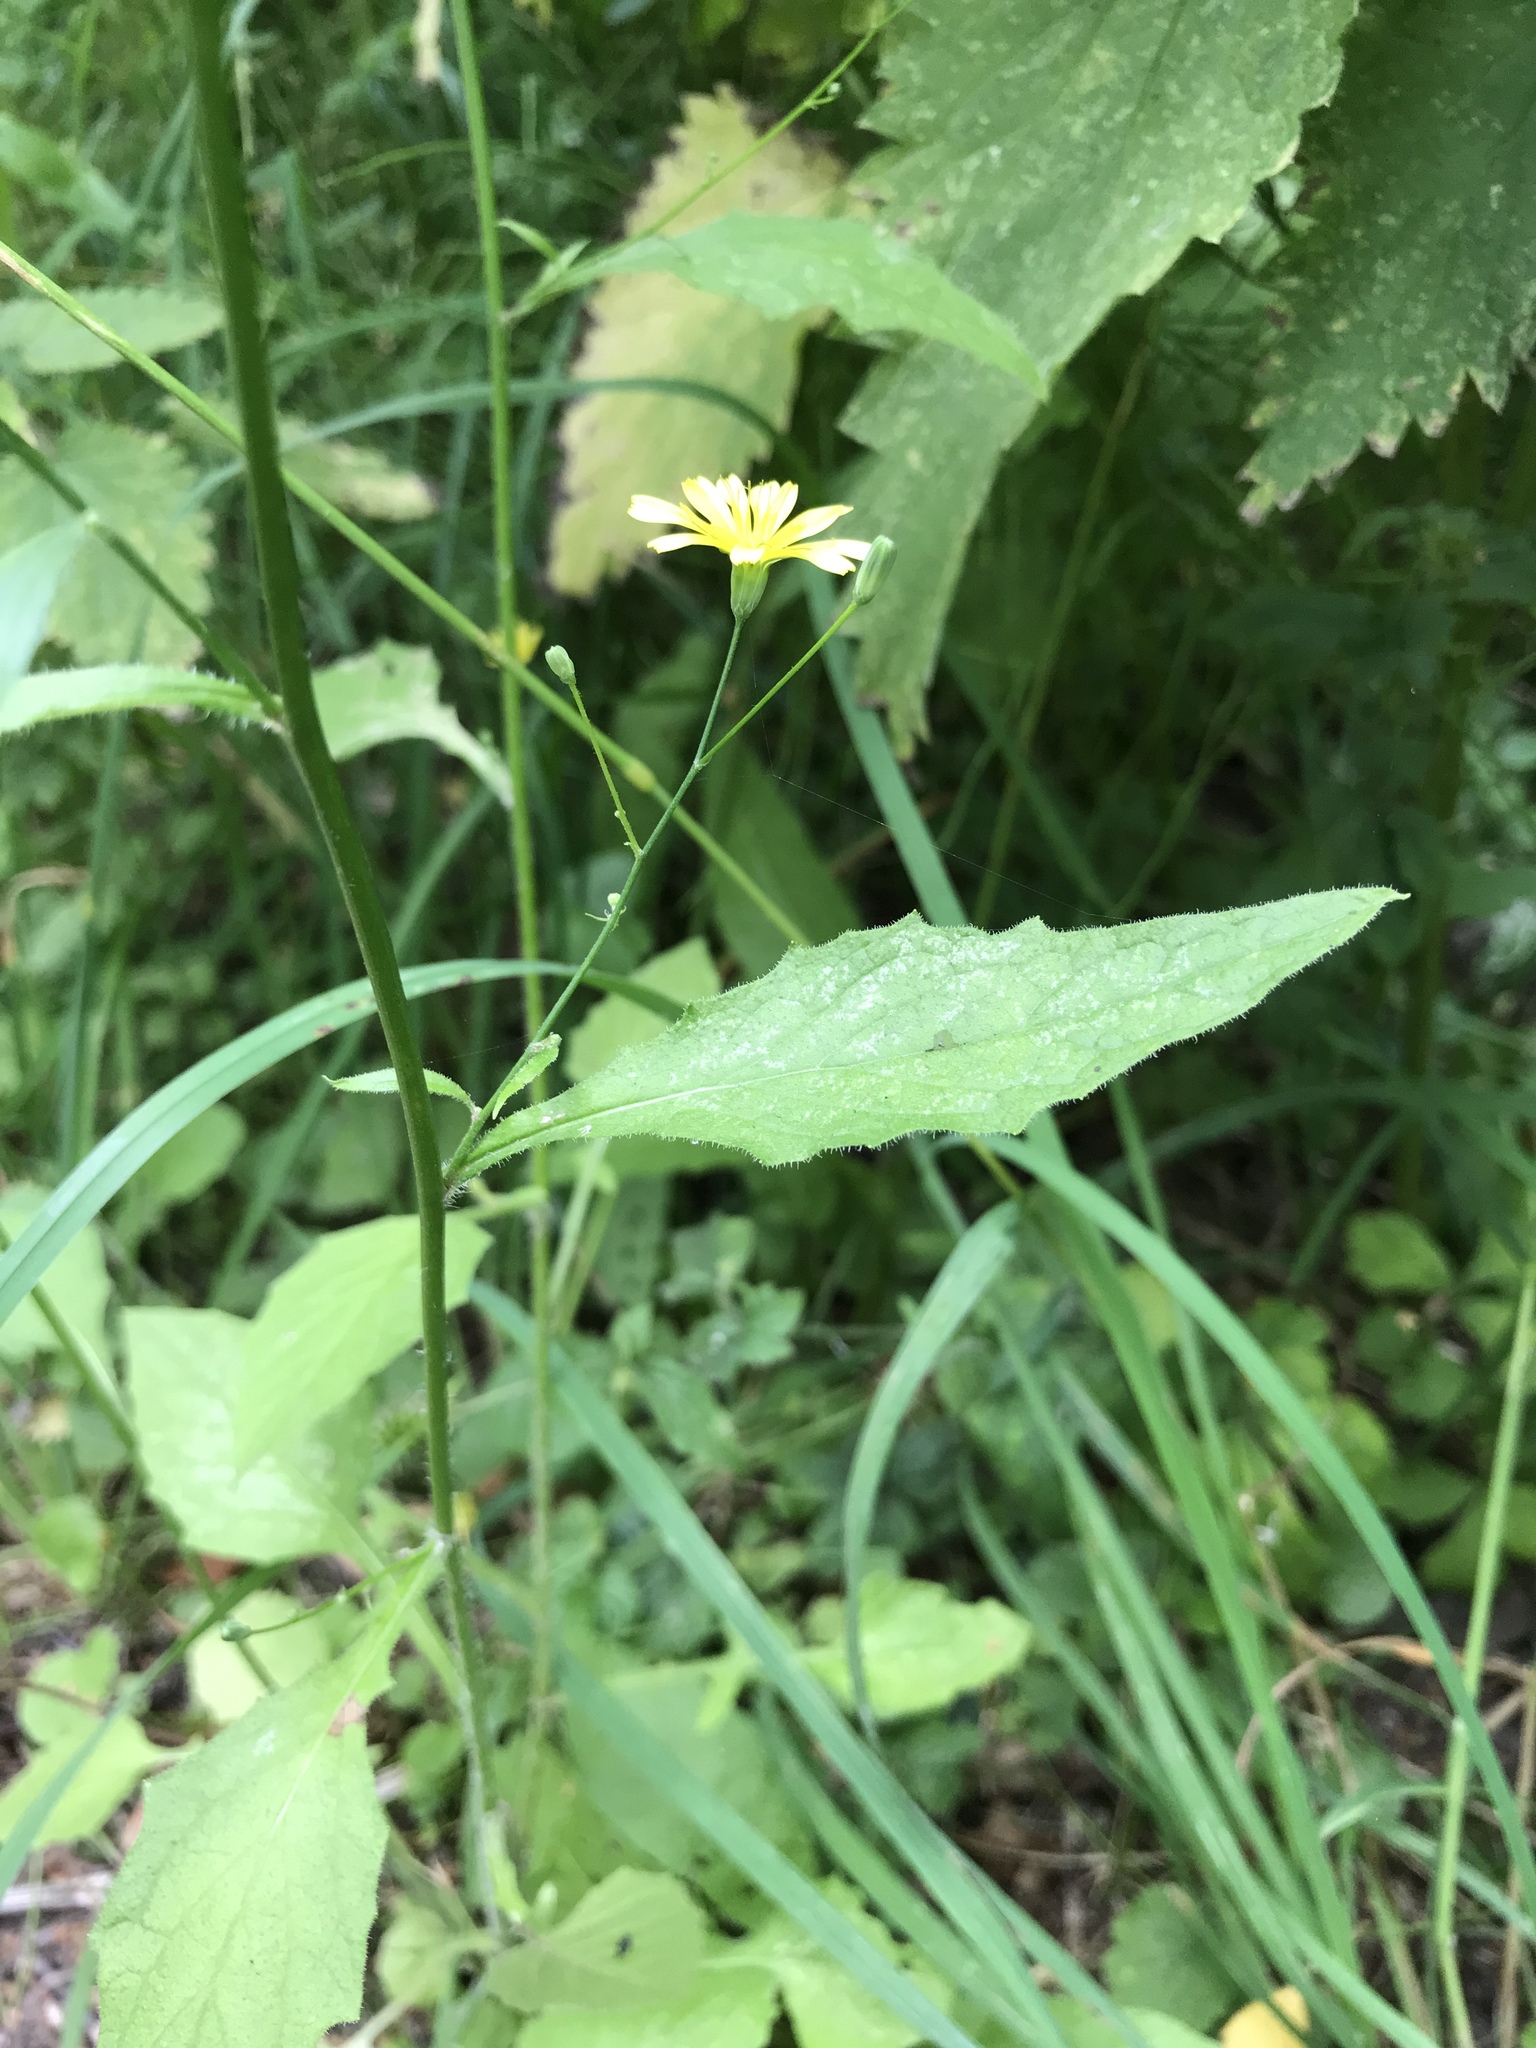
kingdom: Plantae
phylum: Tracheophyta
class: Magnoliopsida
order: Asterales
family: Asteraceae
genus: Lapsana
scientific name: Lapsana communis
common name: Nipplewort
